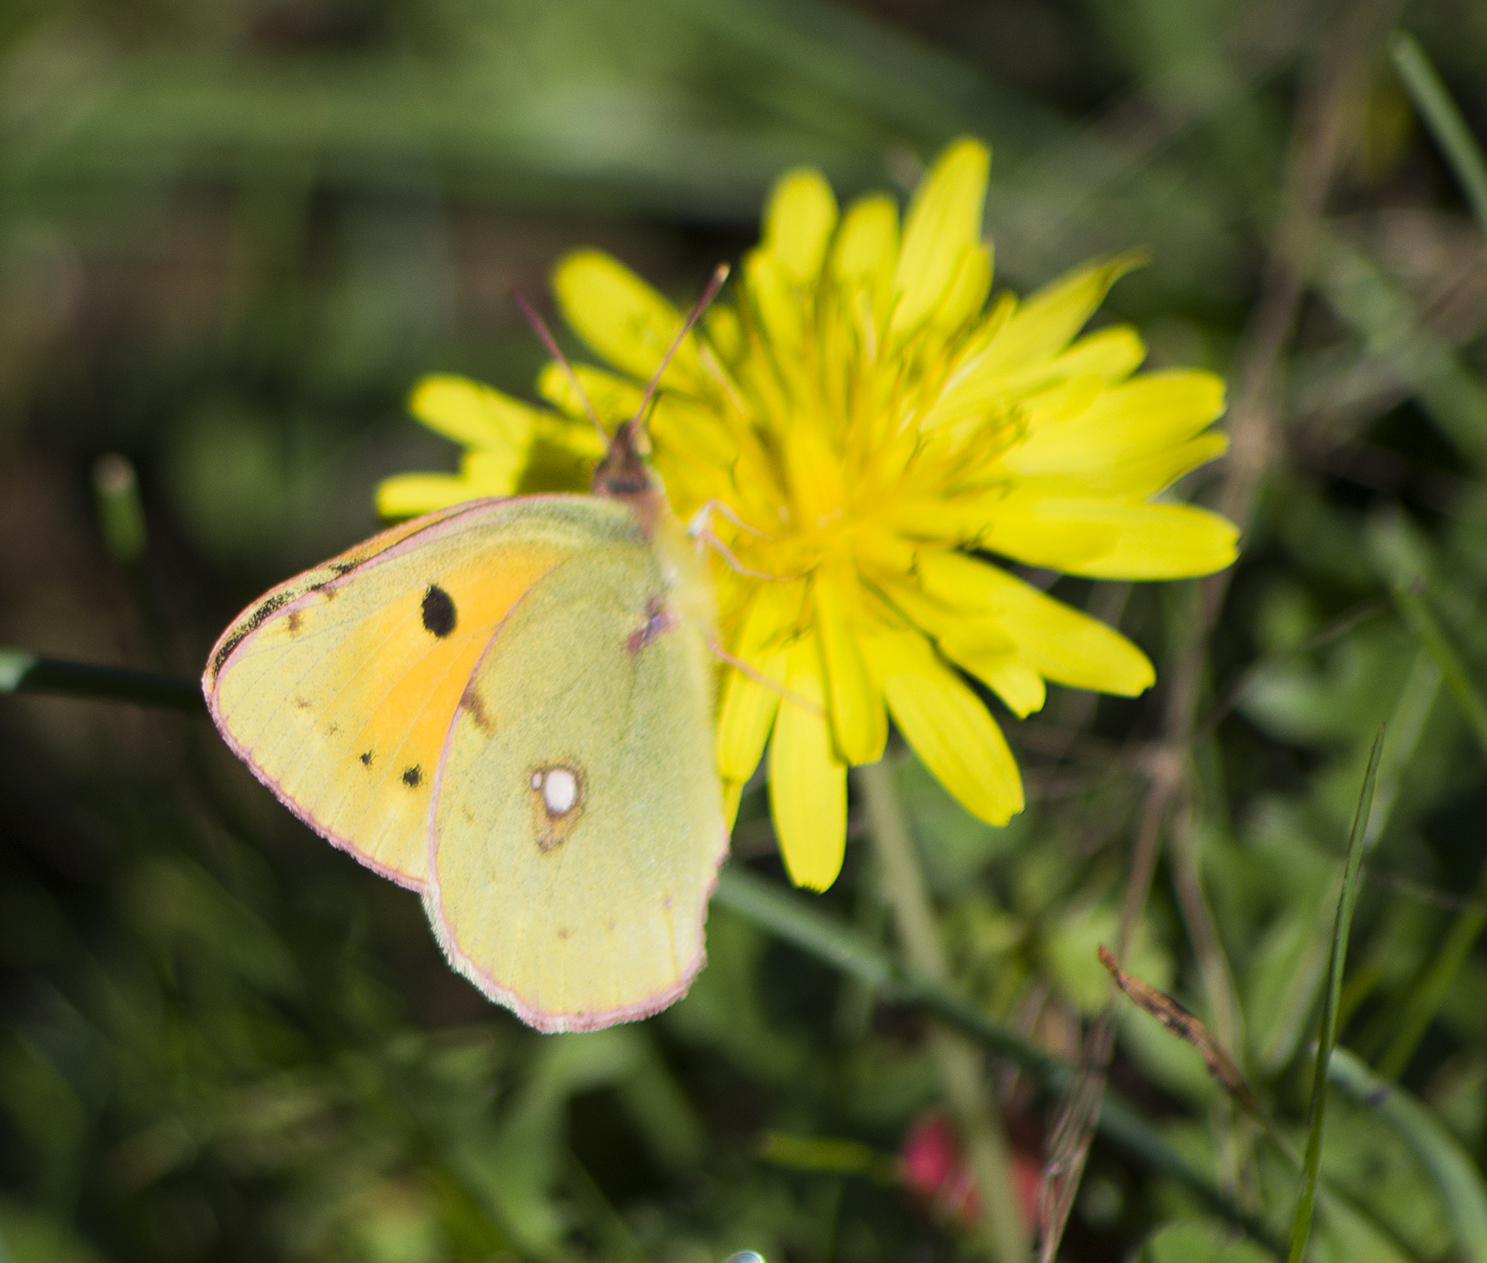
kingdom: Animalia
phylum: Arthropoda
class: Insecta
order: Lepidoptera
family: Pieridae
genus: Colias
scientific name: Colias croceus
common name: Clouded yellow
